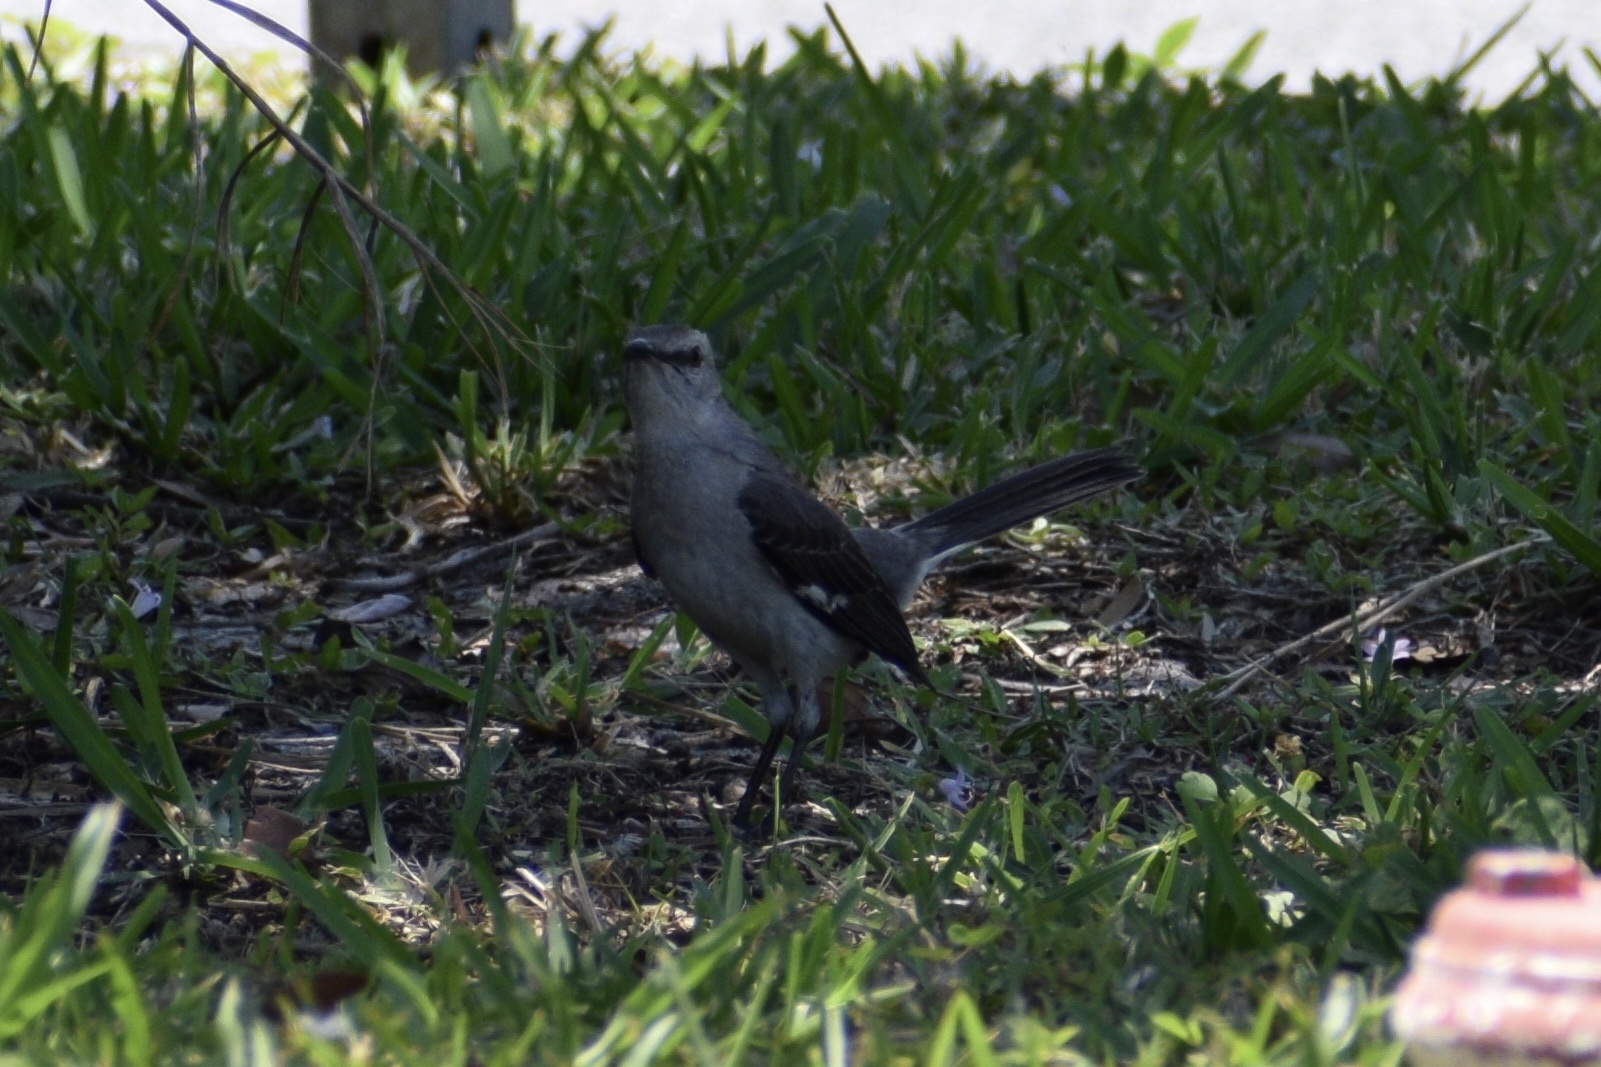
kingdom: Animalia
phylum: Chordata
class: Aves
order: Passeriformes
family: Mimidae
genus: Mimus
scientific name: Mimus polyglottos
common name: Northern mockingbird
